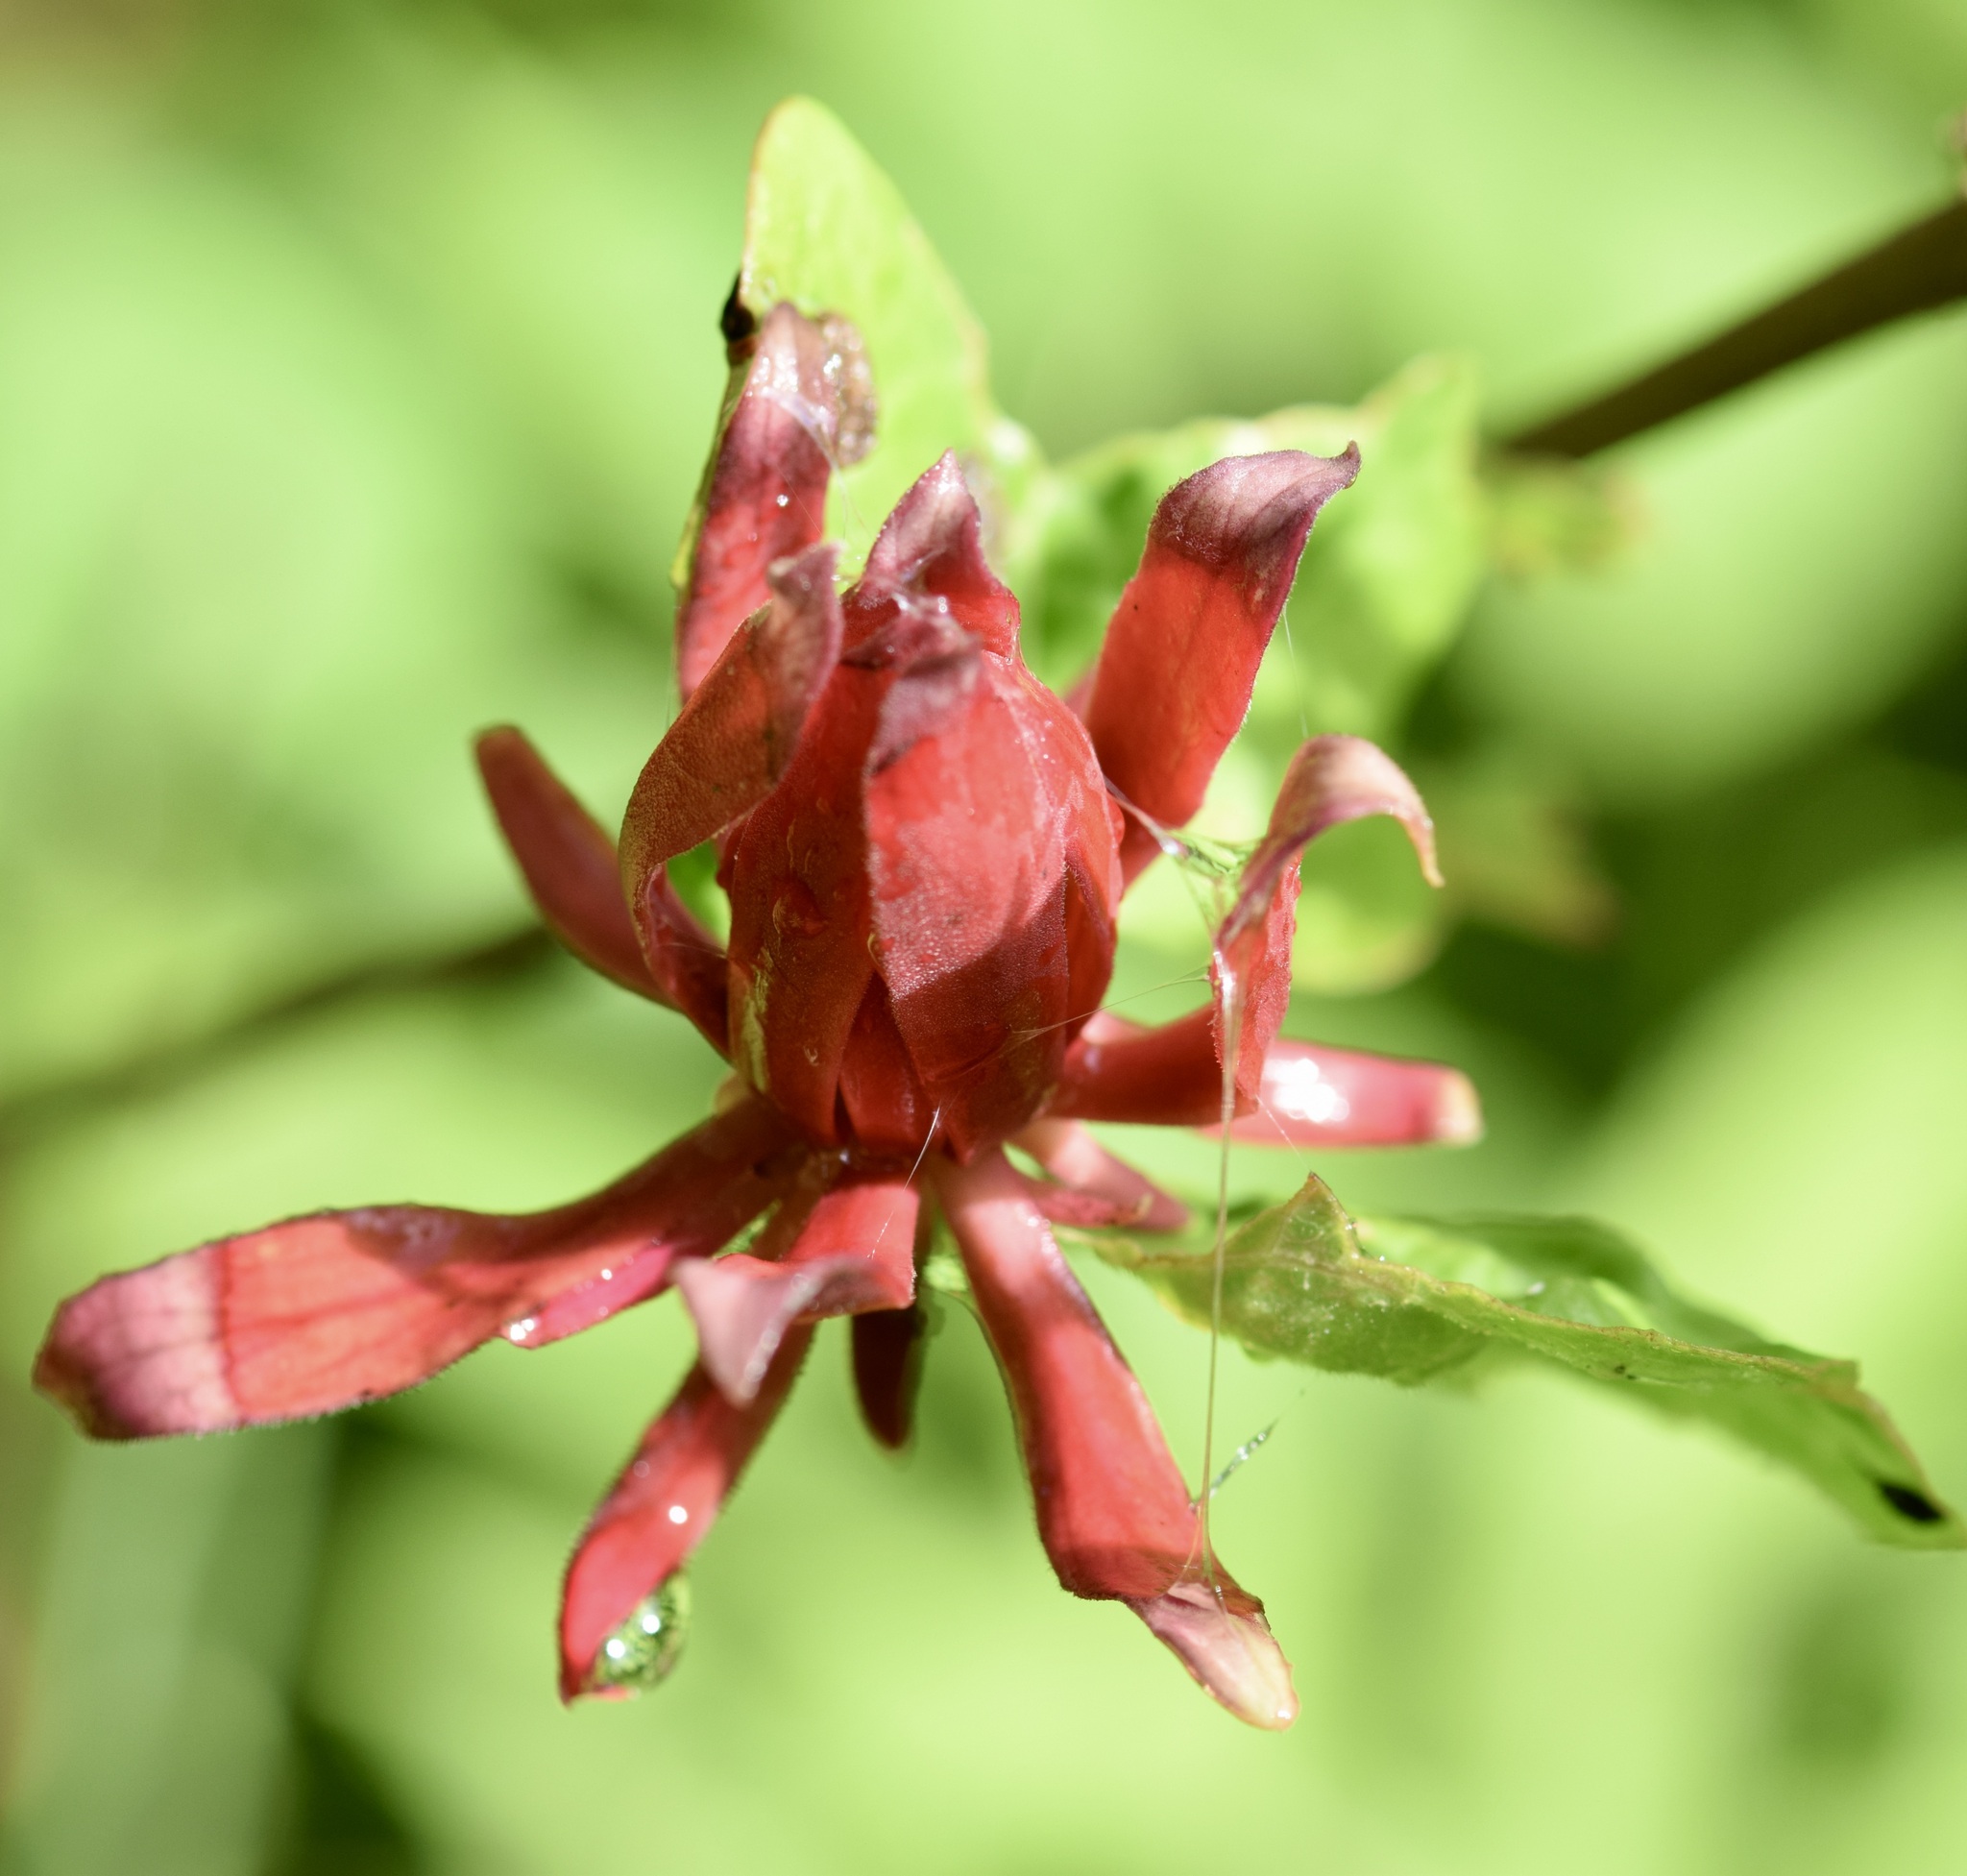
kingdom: Plantae
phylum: Tracheophyta
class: Magnoliopsida
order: Laurales
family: Calycanthaceae
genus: Calycanthus
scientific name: Calycanthus floridus
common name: Carolina-allspice
